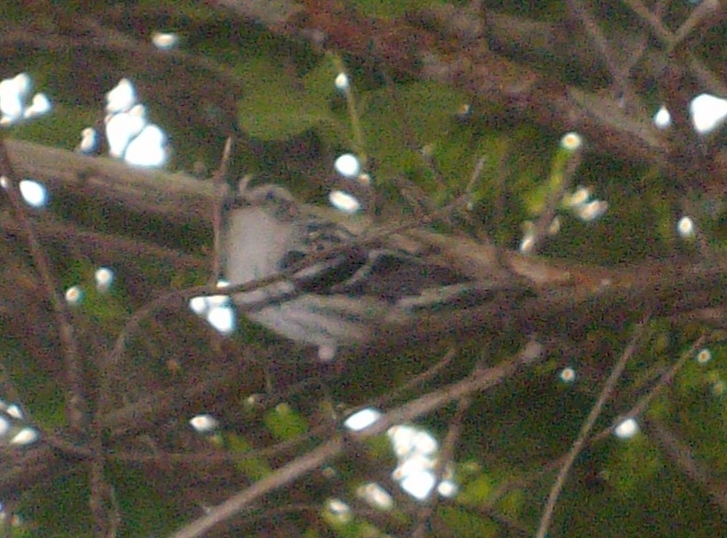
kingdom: Animalia
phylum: Chordata
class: Aves
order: Passeriformes
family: Parulidae
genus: Mniotilta
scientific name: Mniotilta varia
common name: Black-and-white warbler
